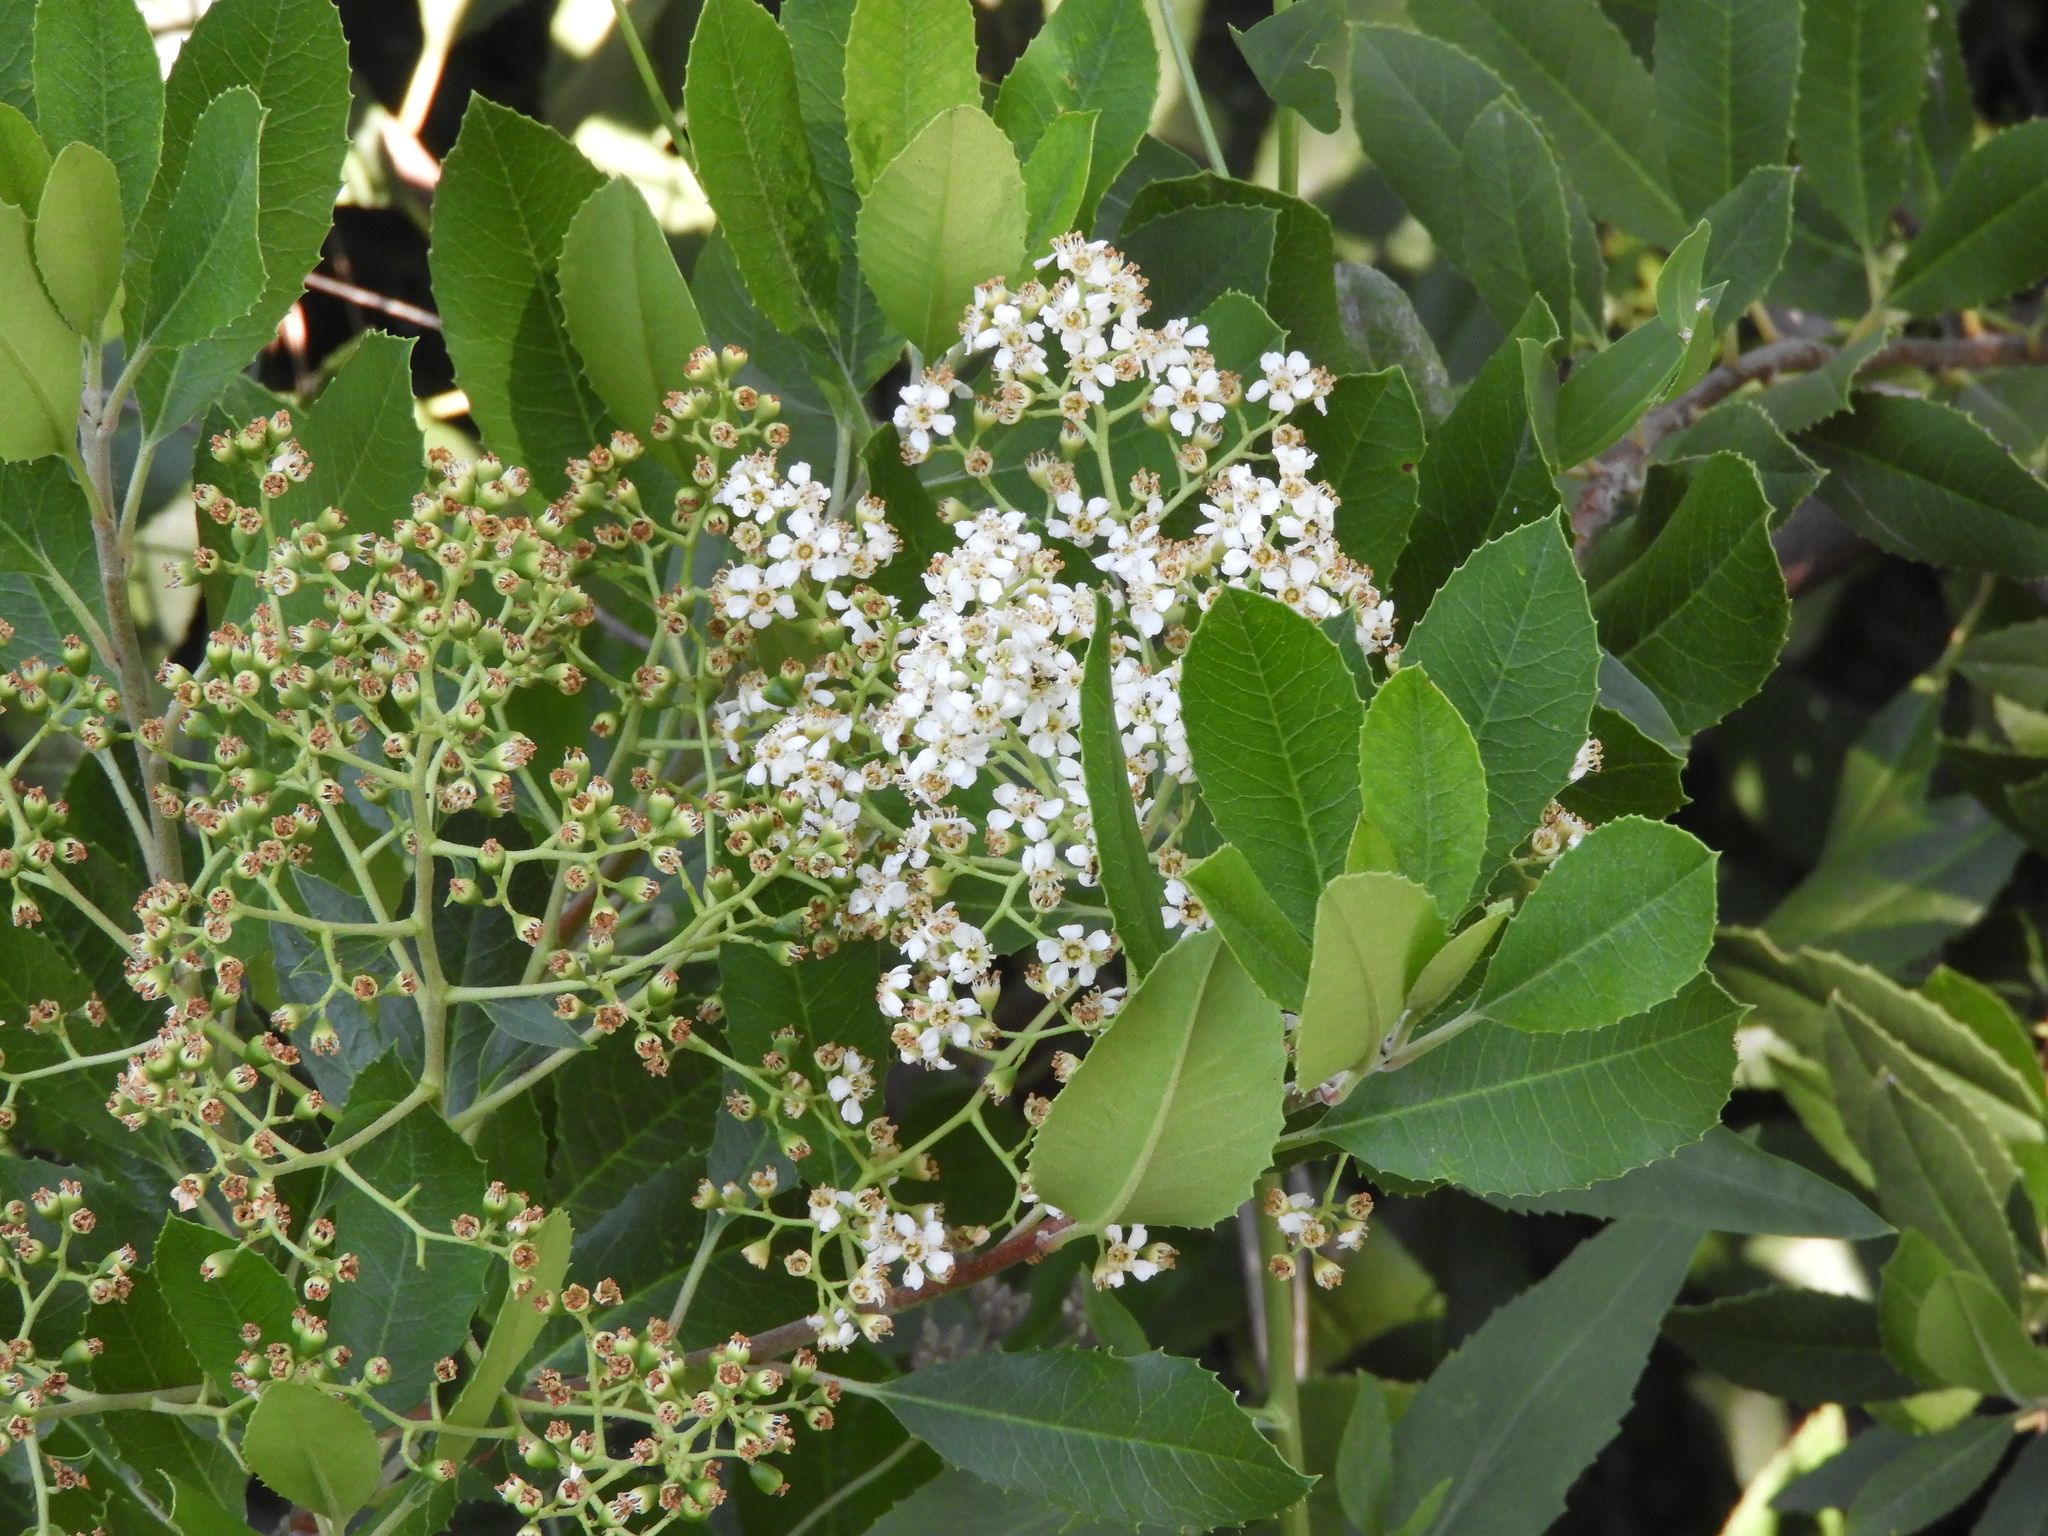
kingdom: Plantae
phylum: Tracheophyta
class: Magnoliopsida
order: Rosales
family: Rosaceae
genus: Heteromeles
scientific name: Heteromeles arbutifolia
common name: California-holly
